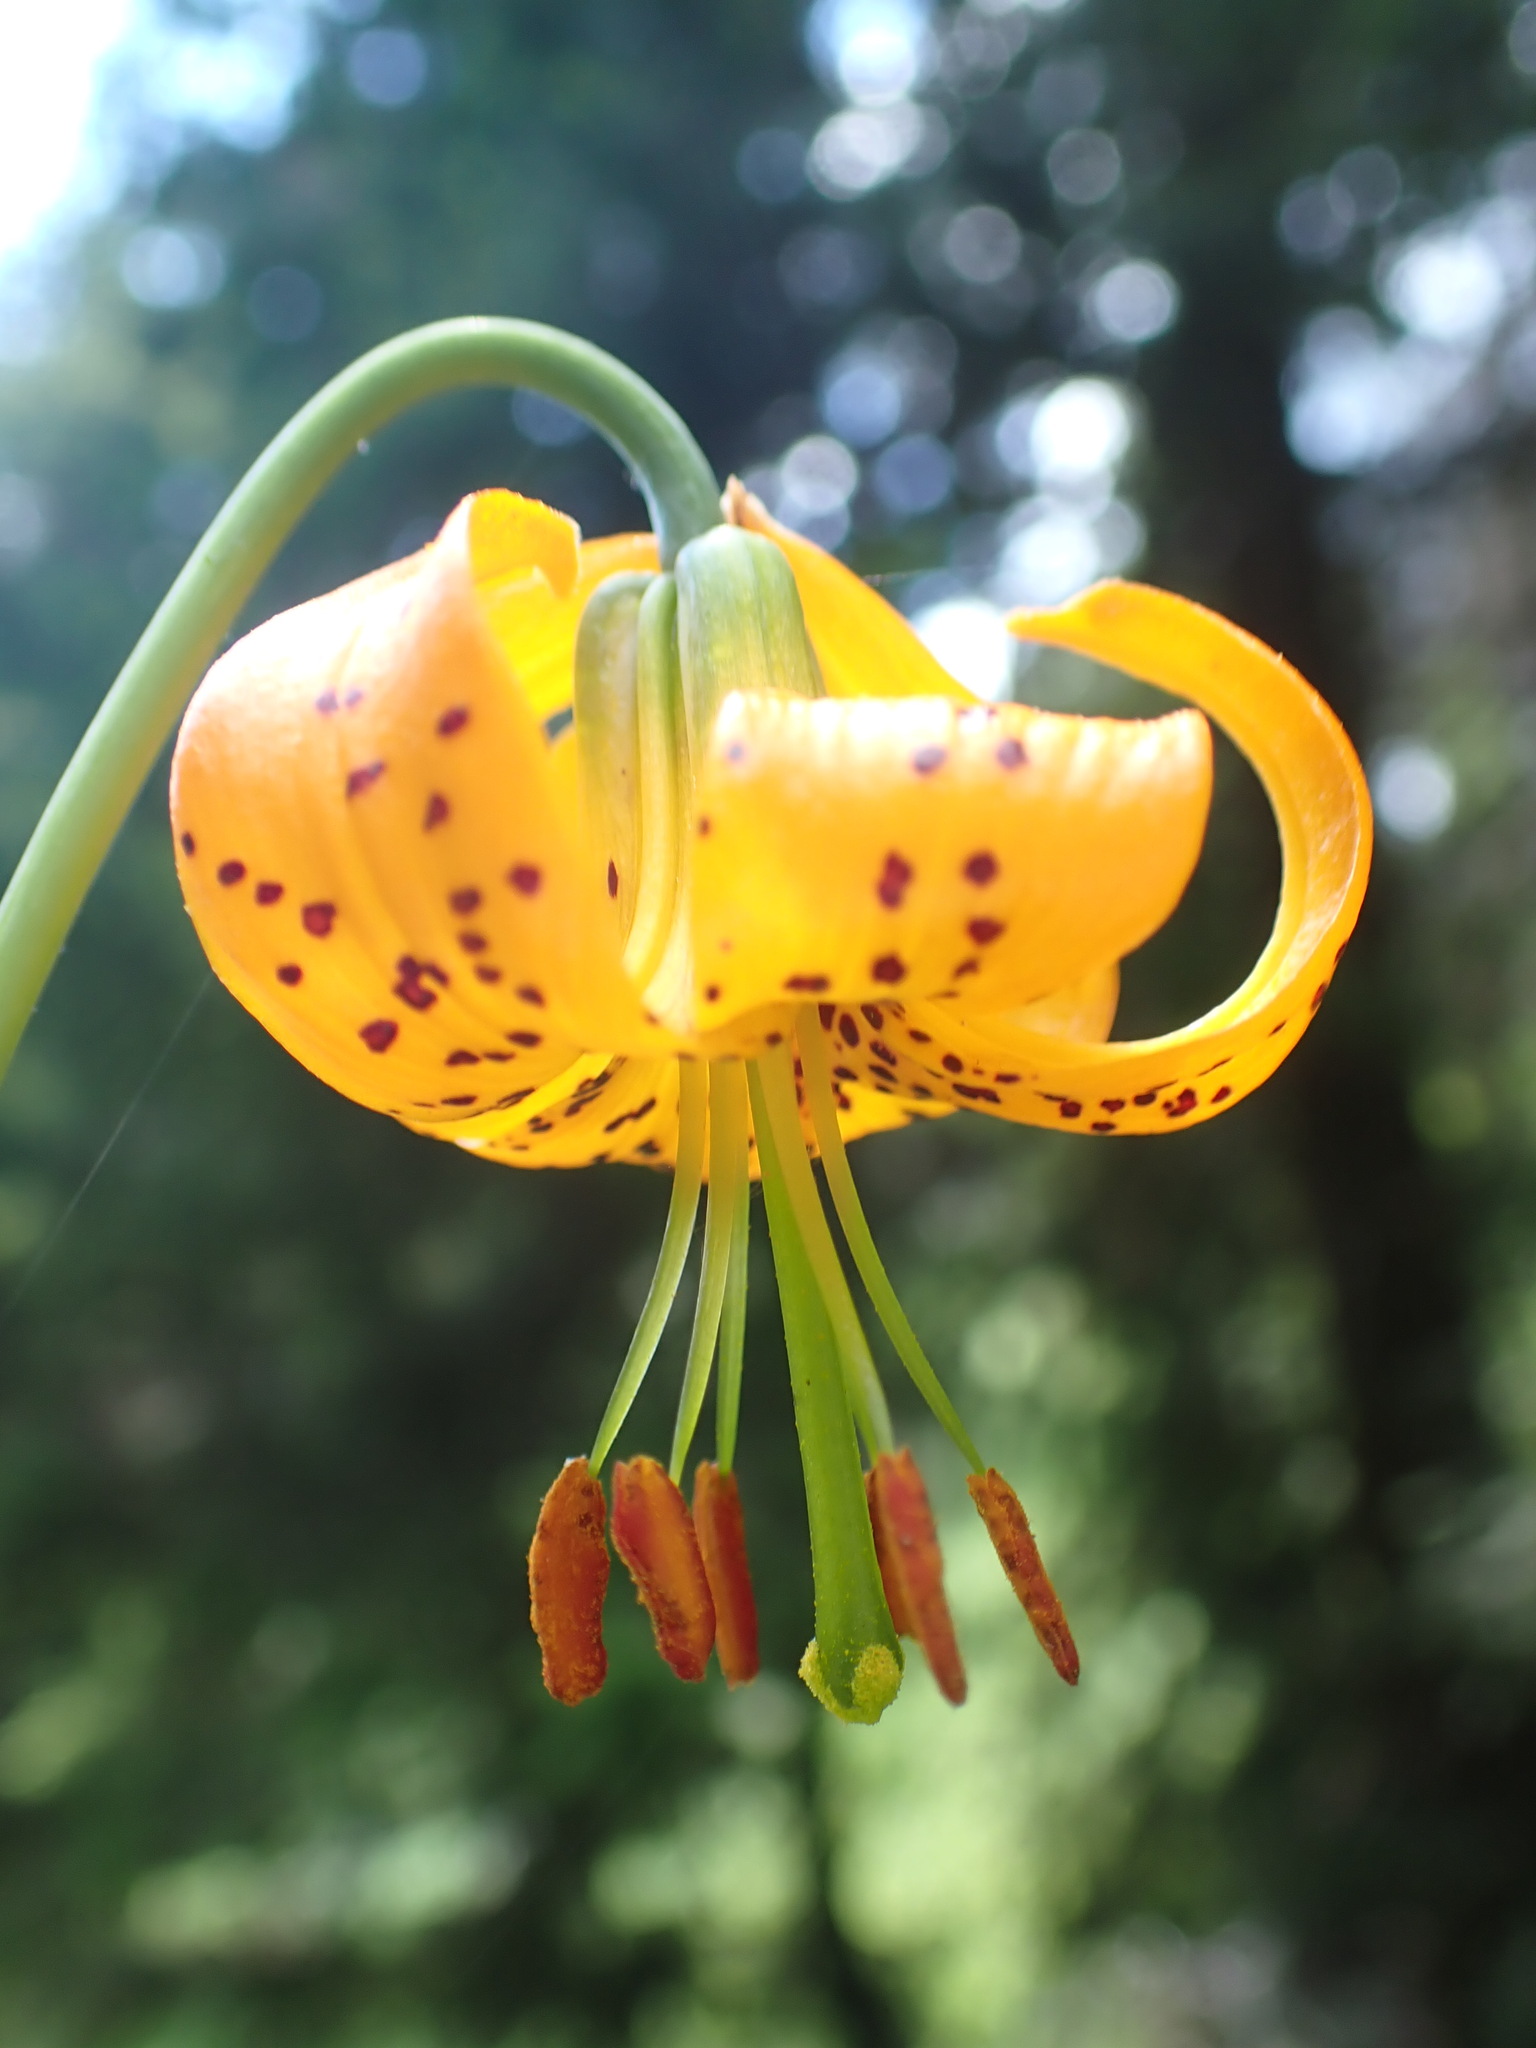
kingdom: Plantae
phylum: Tracheophyta
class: Liliopsida
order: Liliales
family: Liliaceae
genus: Lilium
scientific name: Lilium columbianum
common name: Columbia lily
